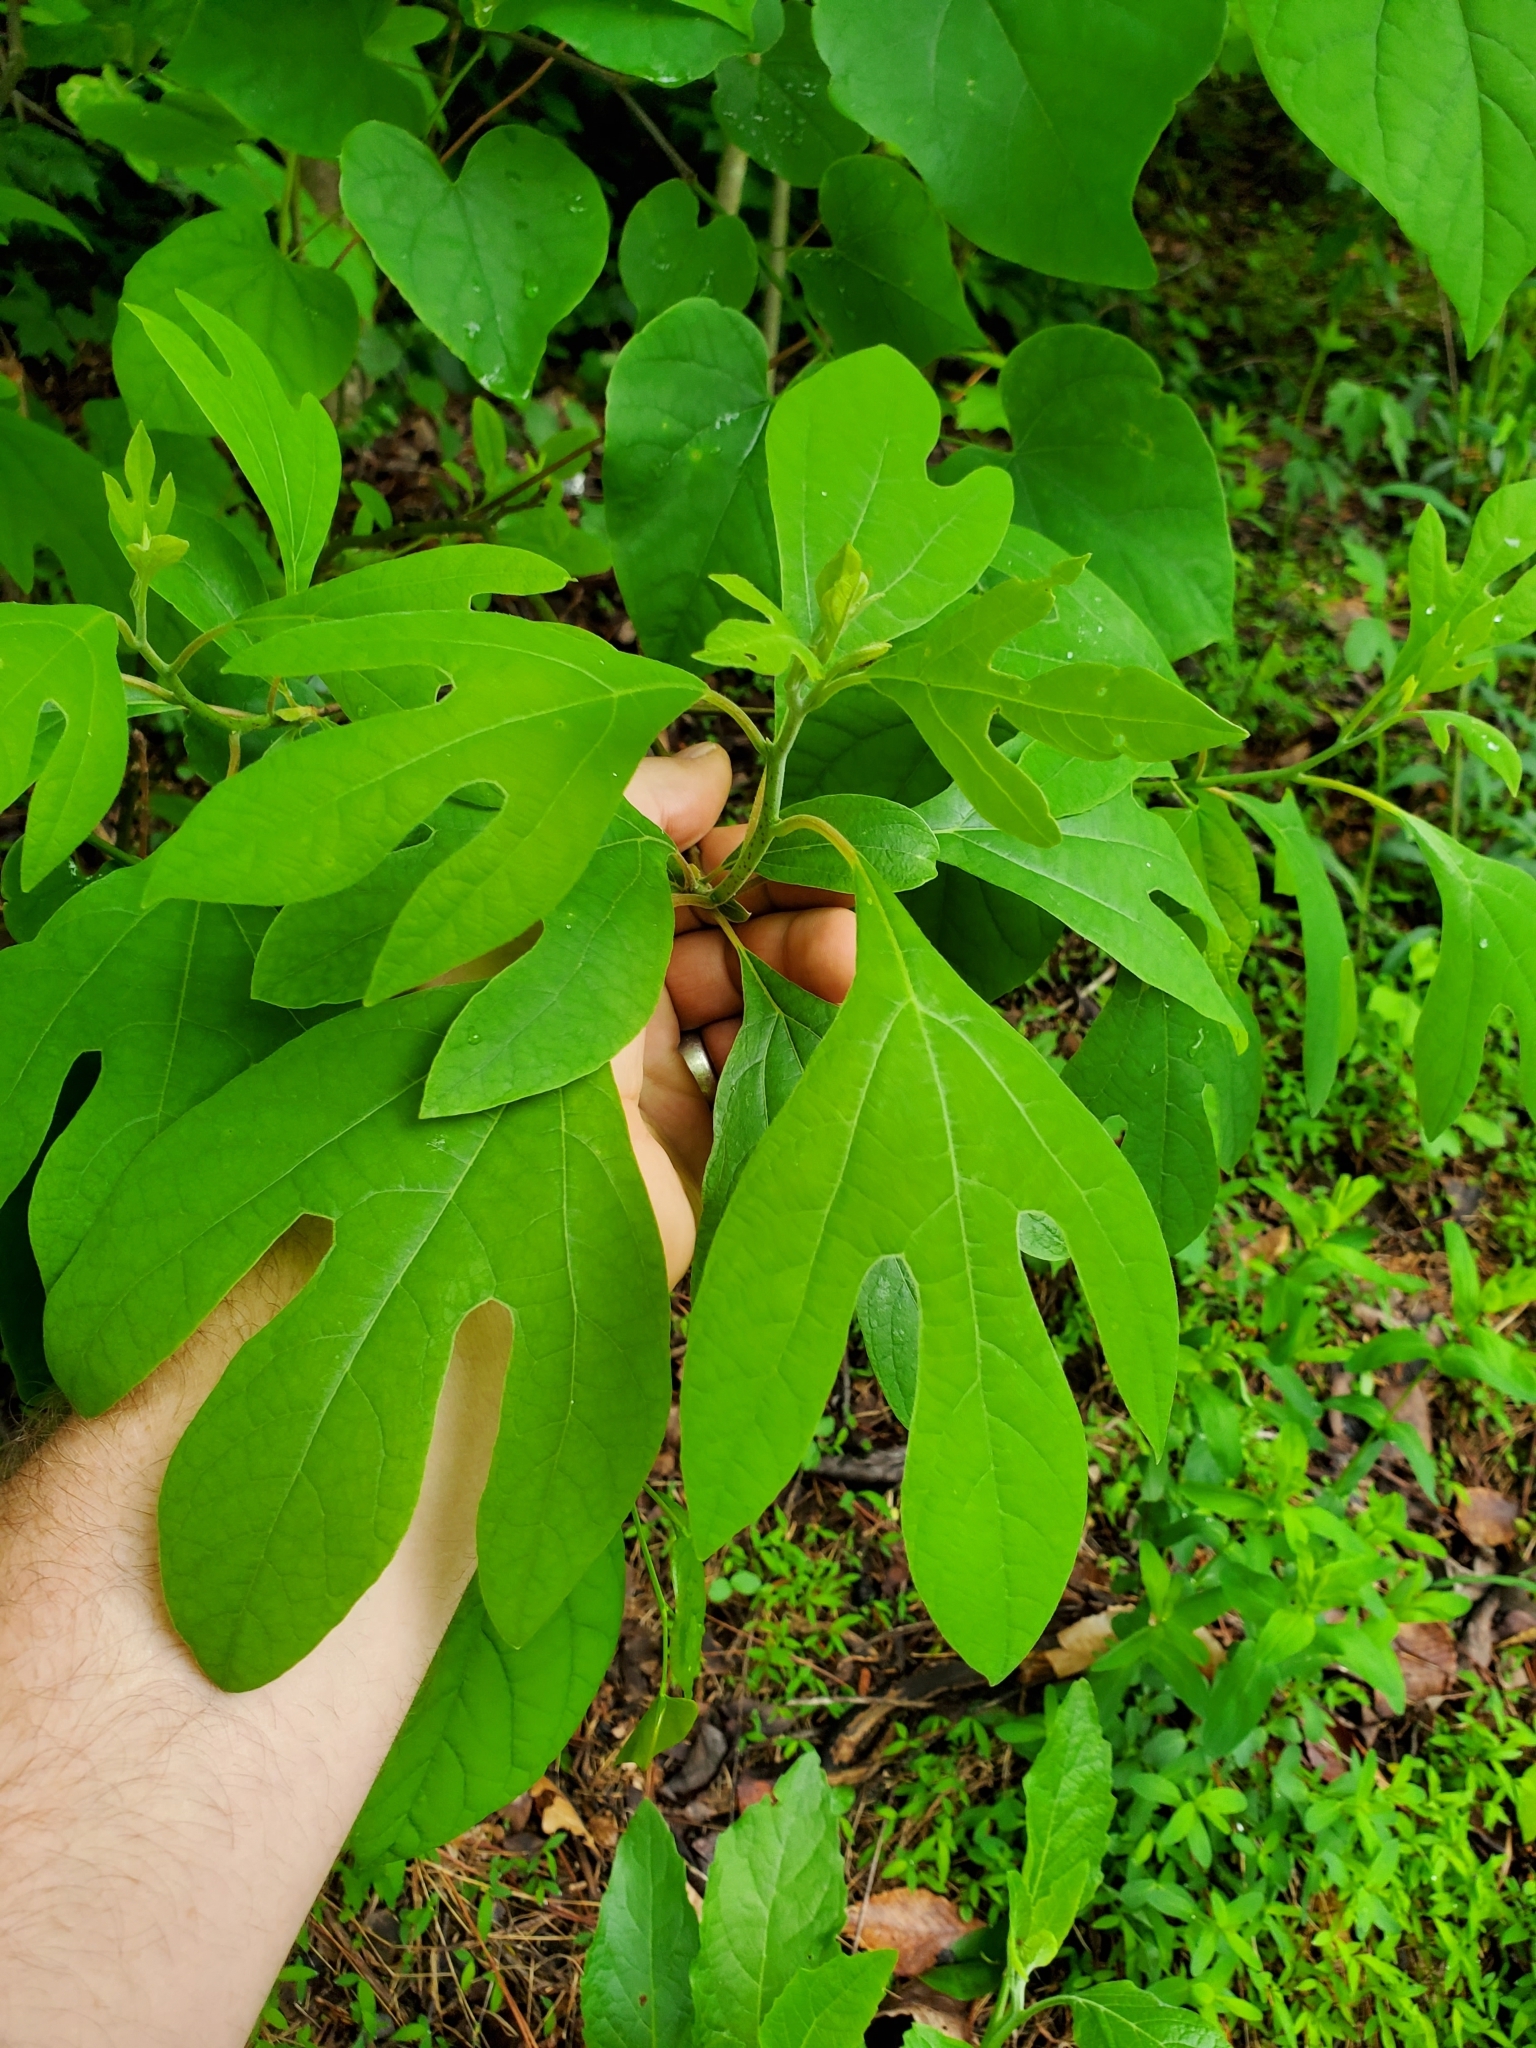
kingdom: Plantae
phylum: Tracheophyta
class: Magnoliopsida
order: Laurales
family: Lauraceae
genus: Sassafras
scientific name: Sassafras albidum
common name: Sassafras
